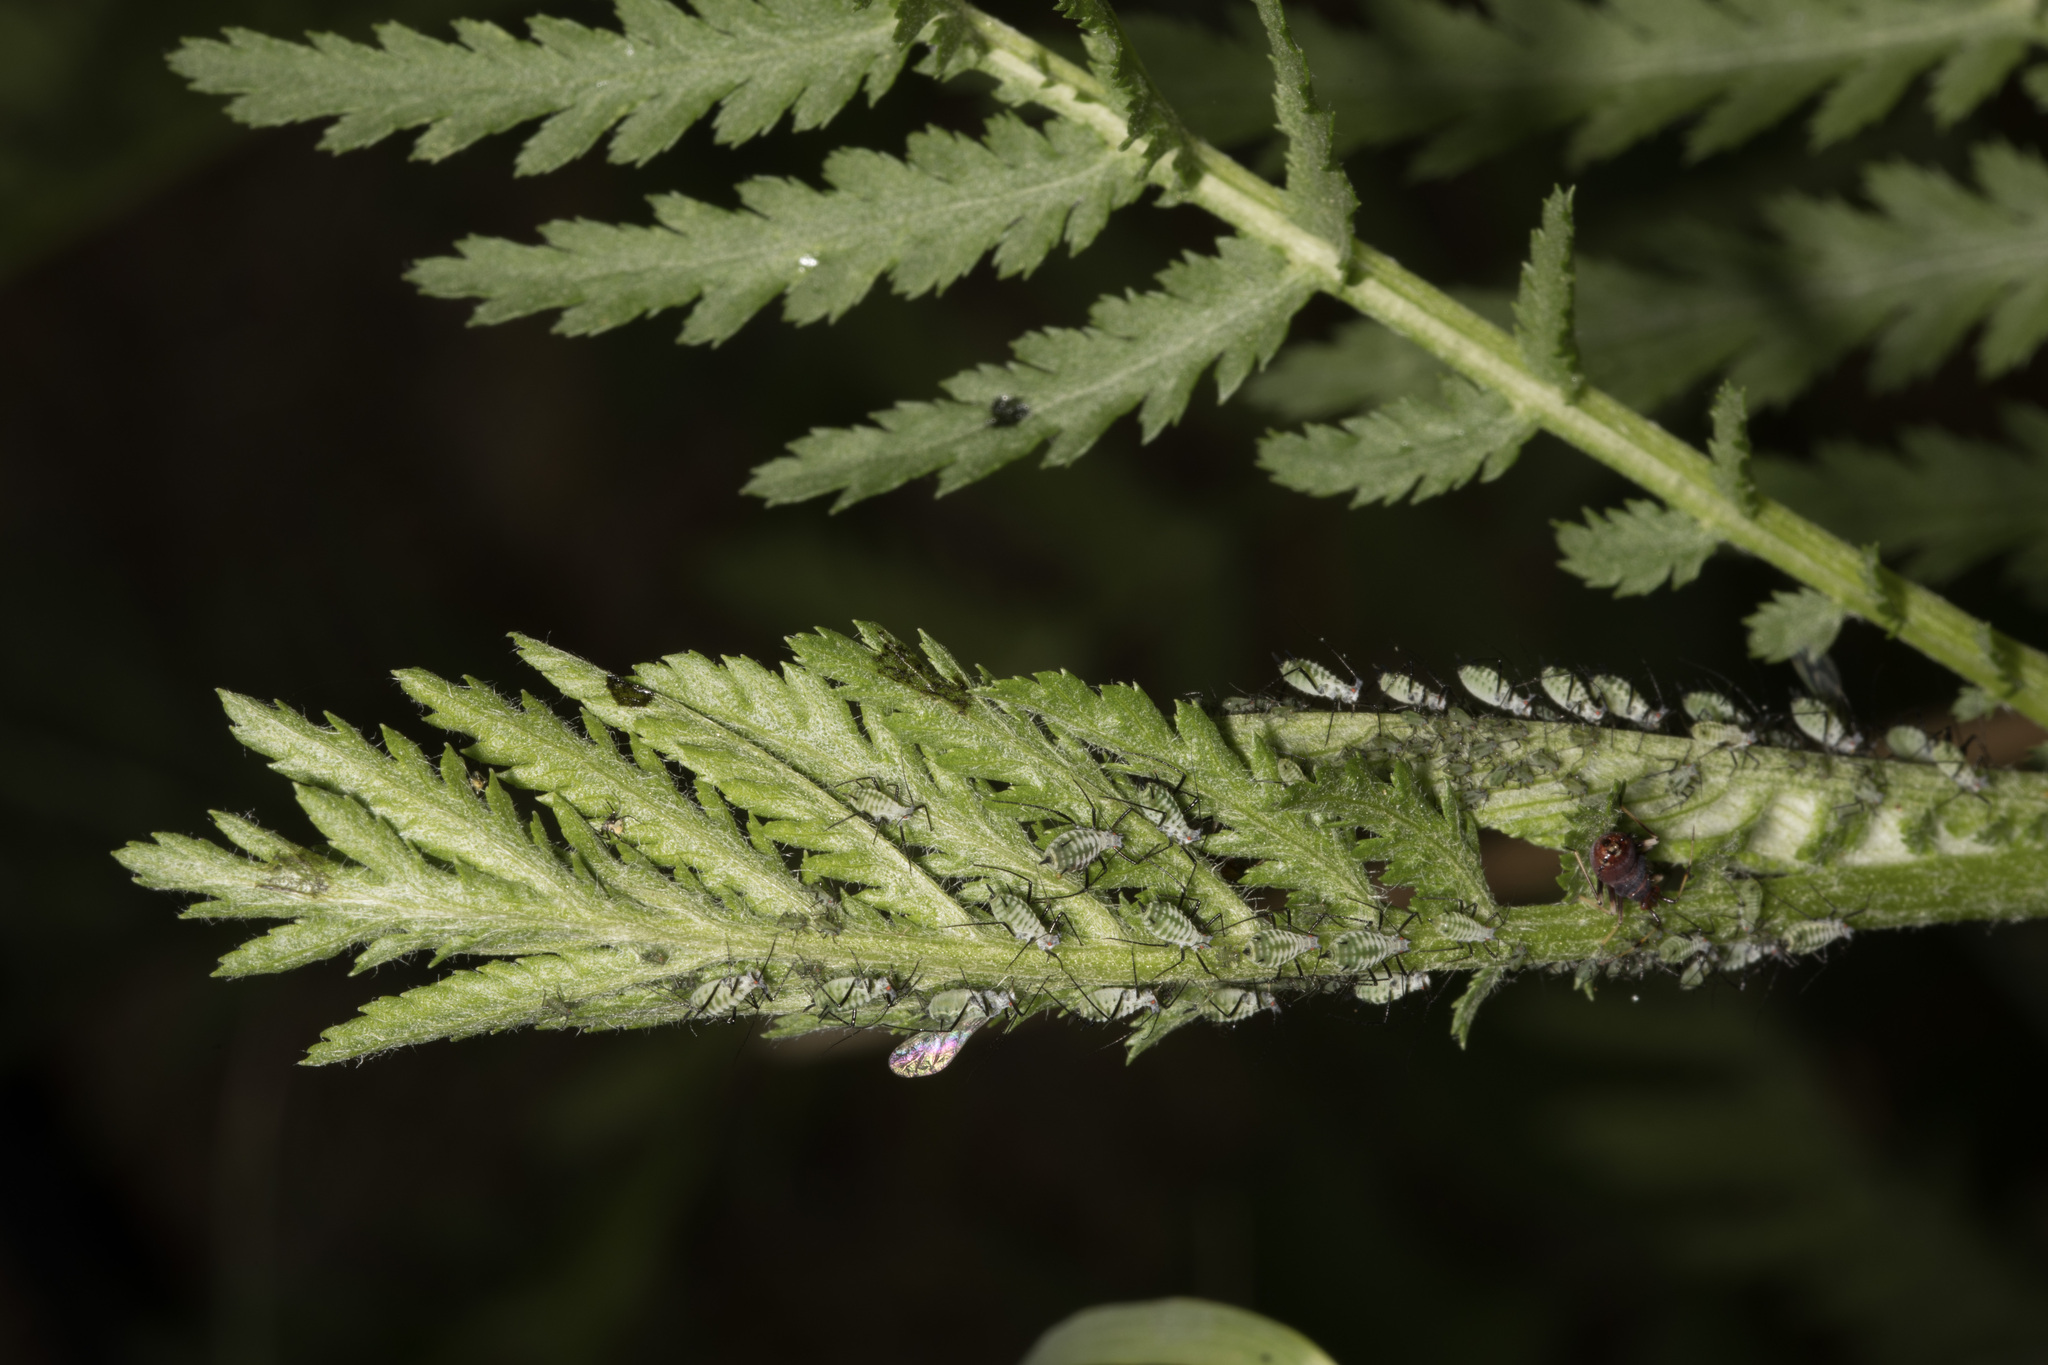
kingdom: Plantae
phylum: Tracheophyta
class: Magnoliopsida
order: Asterales
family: Asteraceae
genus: Tanacetum
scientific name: Tanacetum vulgare
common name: Common tansy
